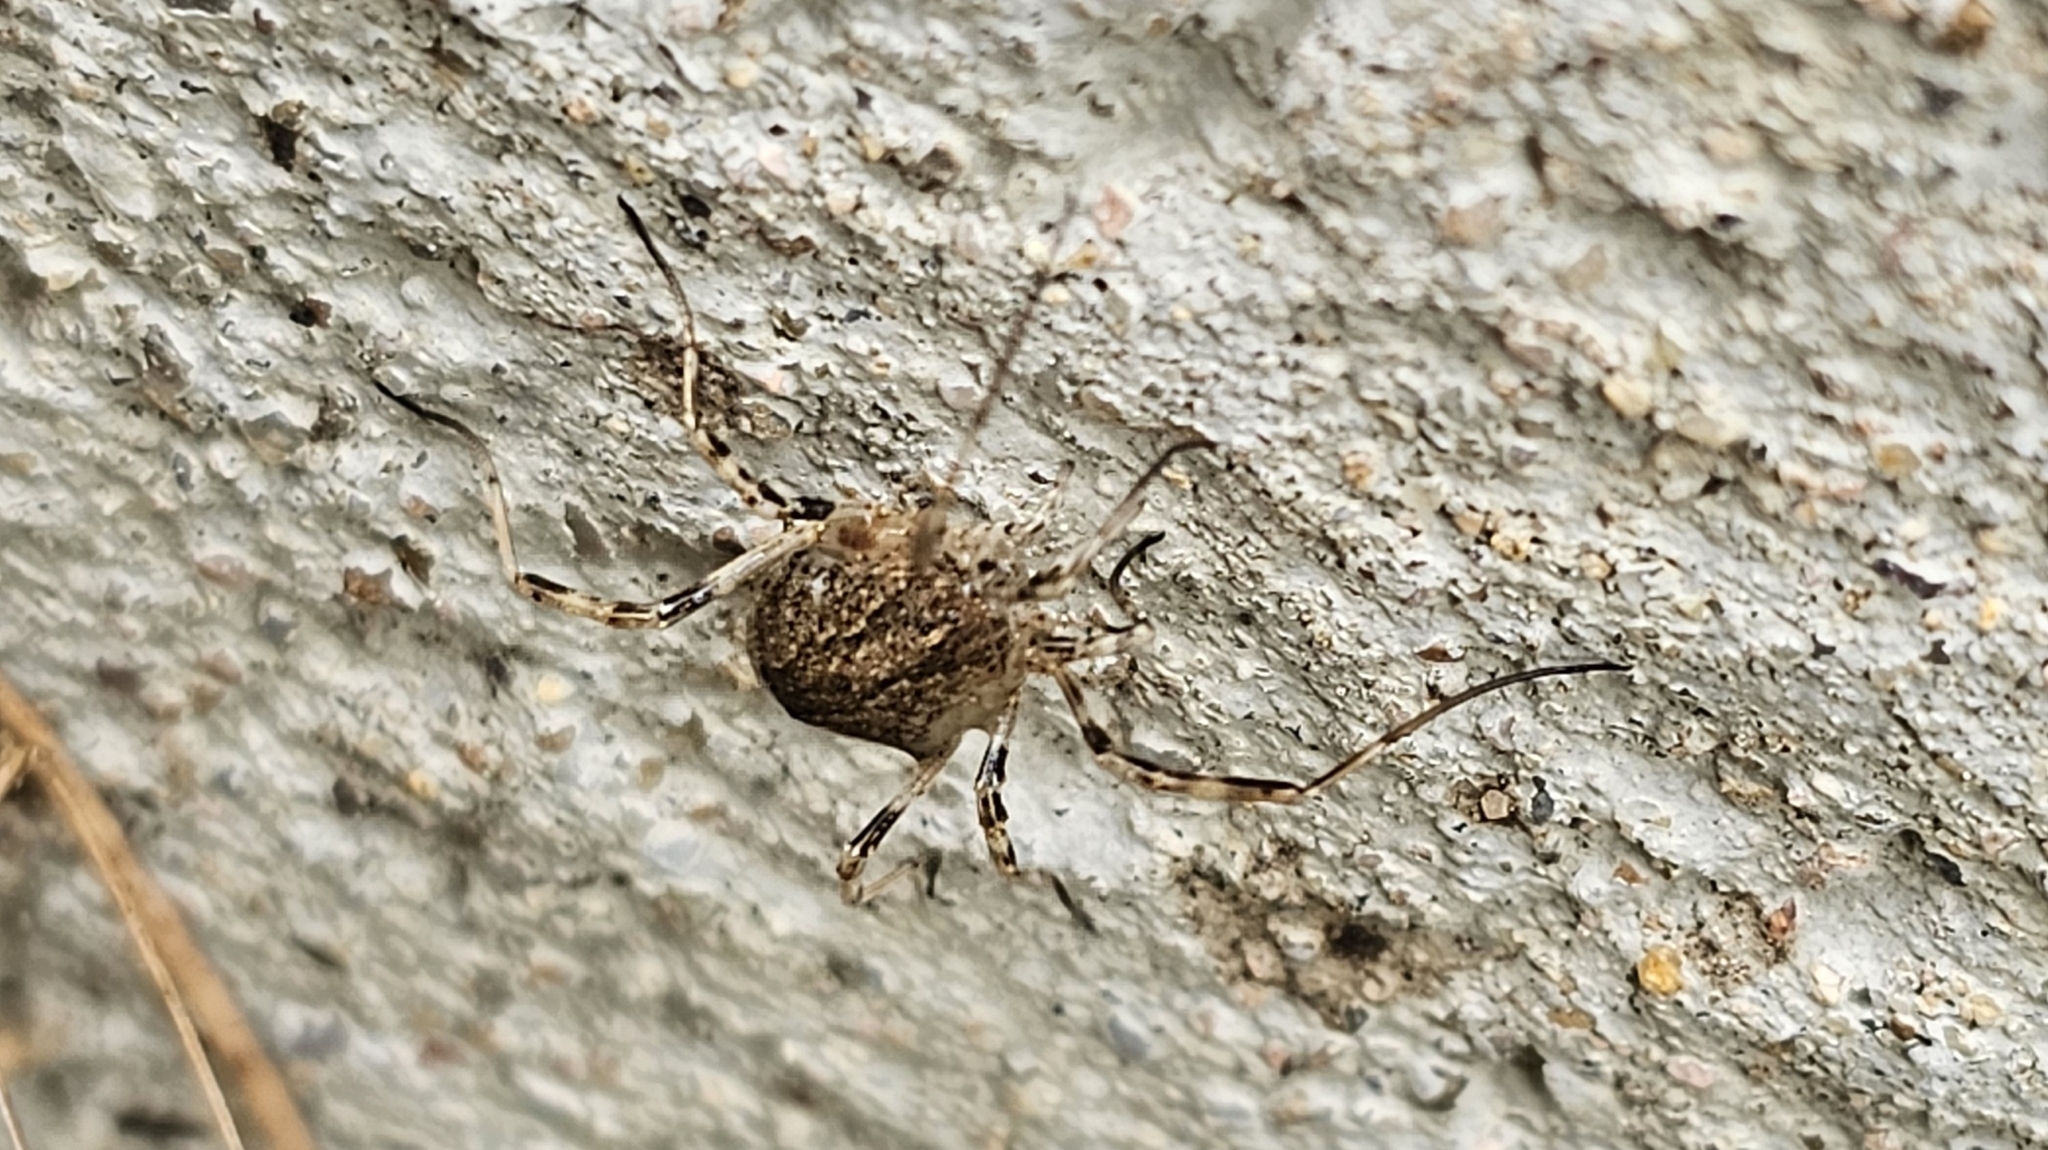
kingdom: Animalia
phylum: Arthropoda
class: Arachnida
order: Opiliones
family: Phalangiidae
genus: Odiellus
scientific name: Odiellus spinosus
